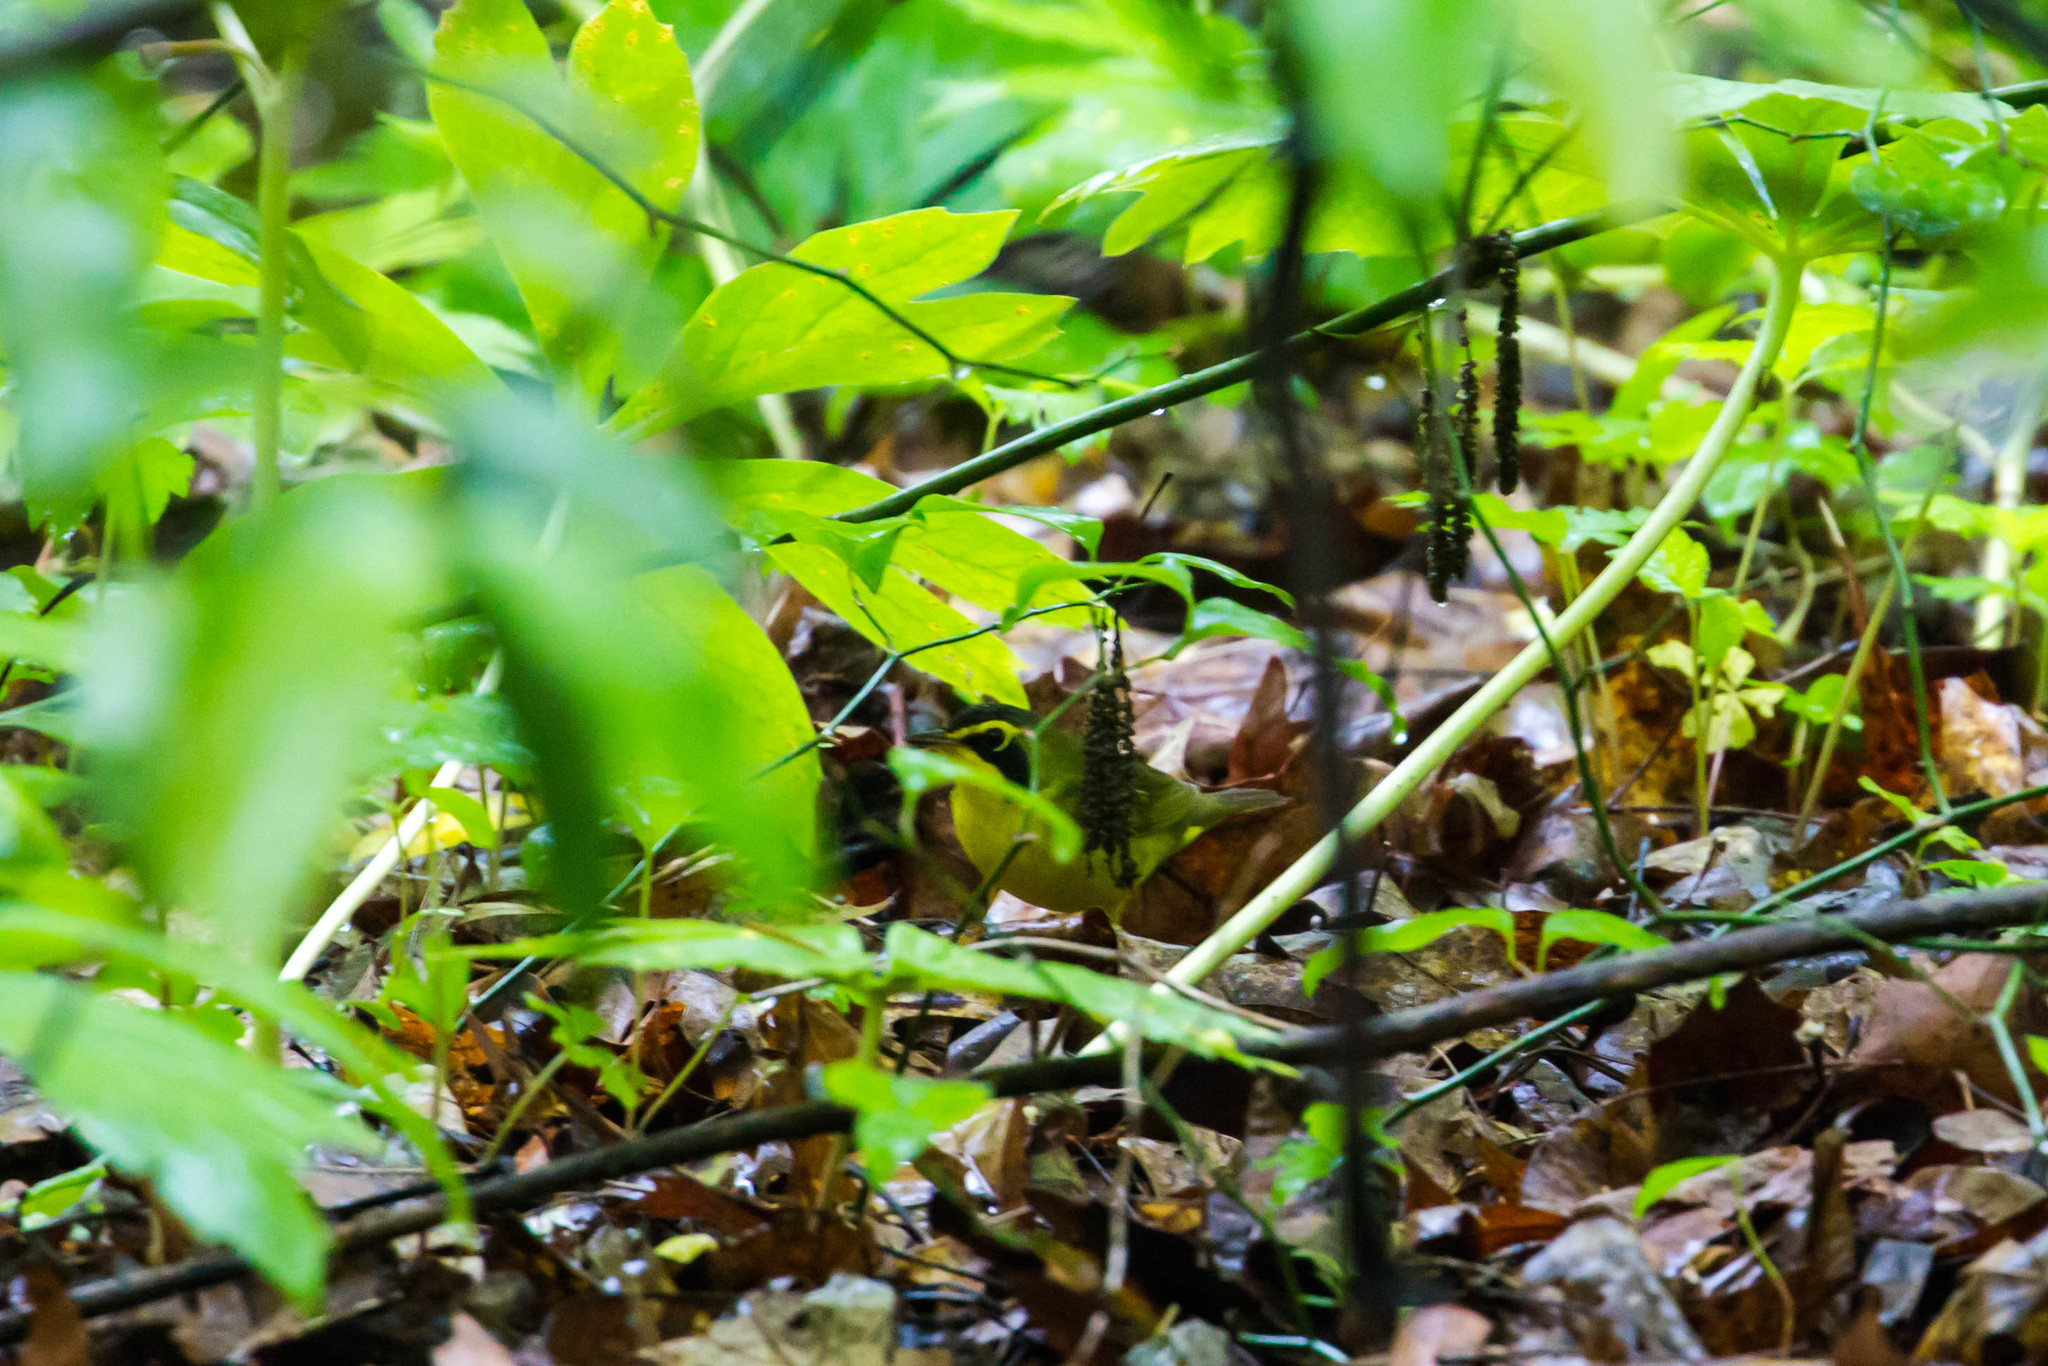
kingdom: Animalia
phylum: Chordata
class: Aves
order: Passeriformes
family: Parulidae
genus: Geothlypis
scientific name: Geothlypis formosa
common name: Kentucky warbler
